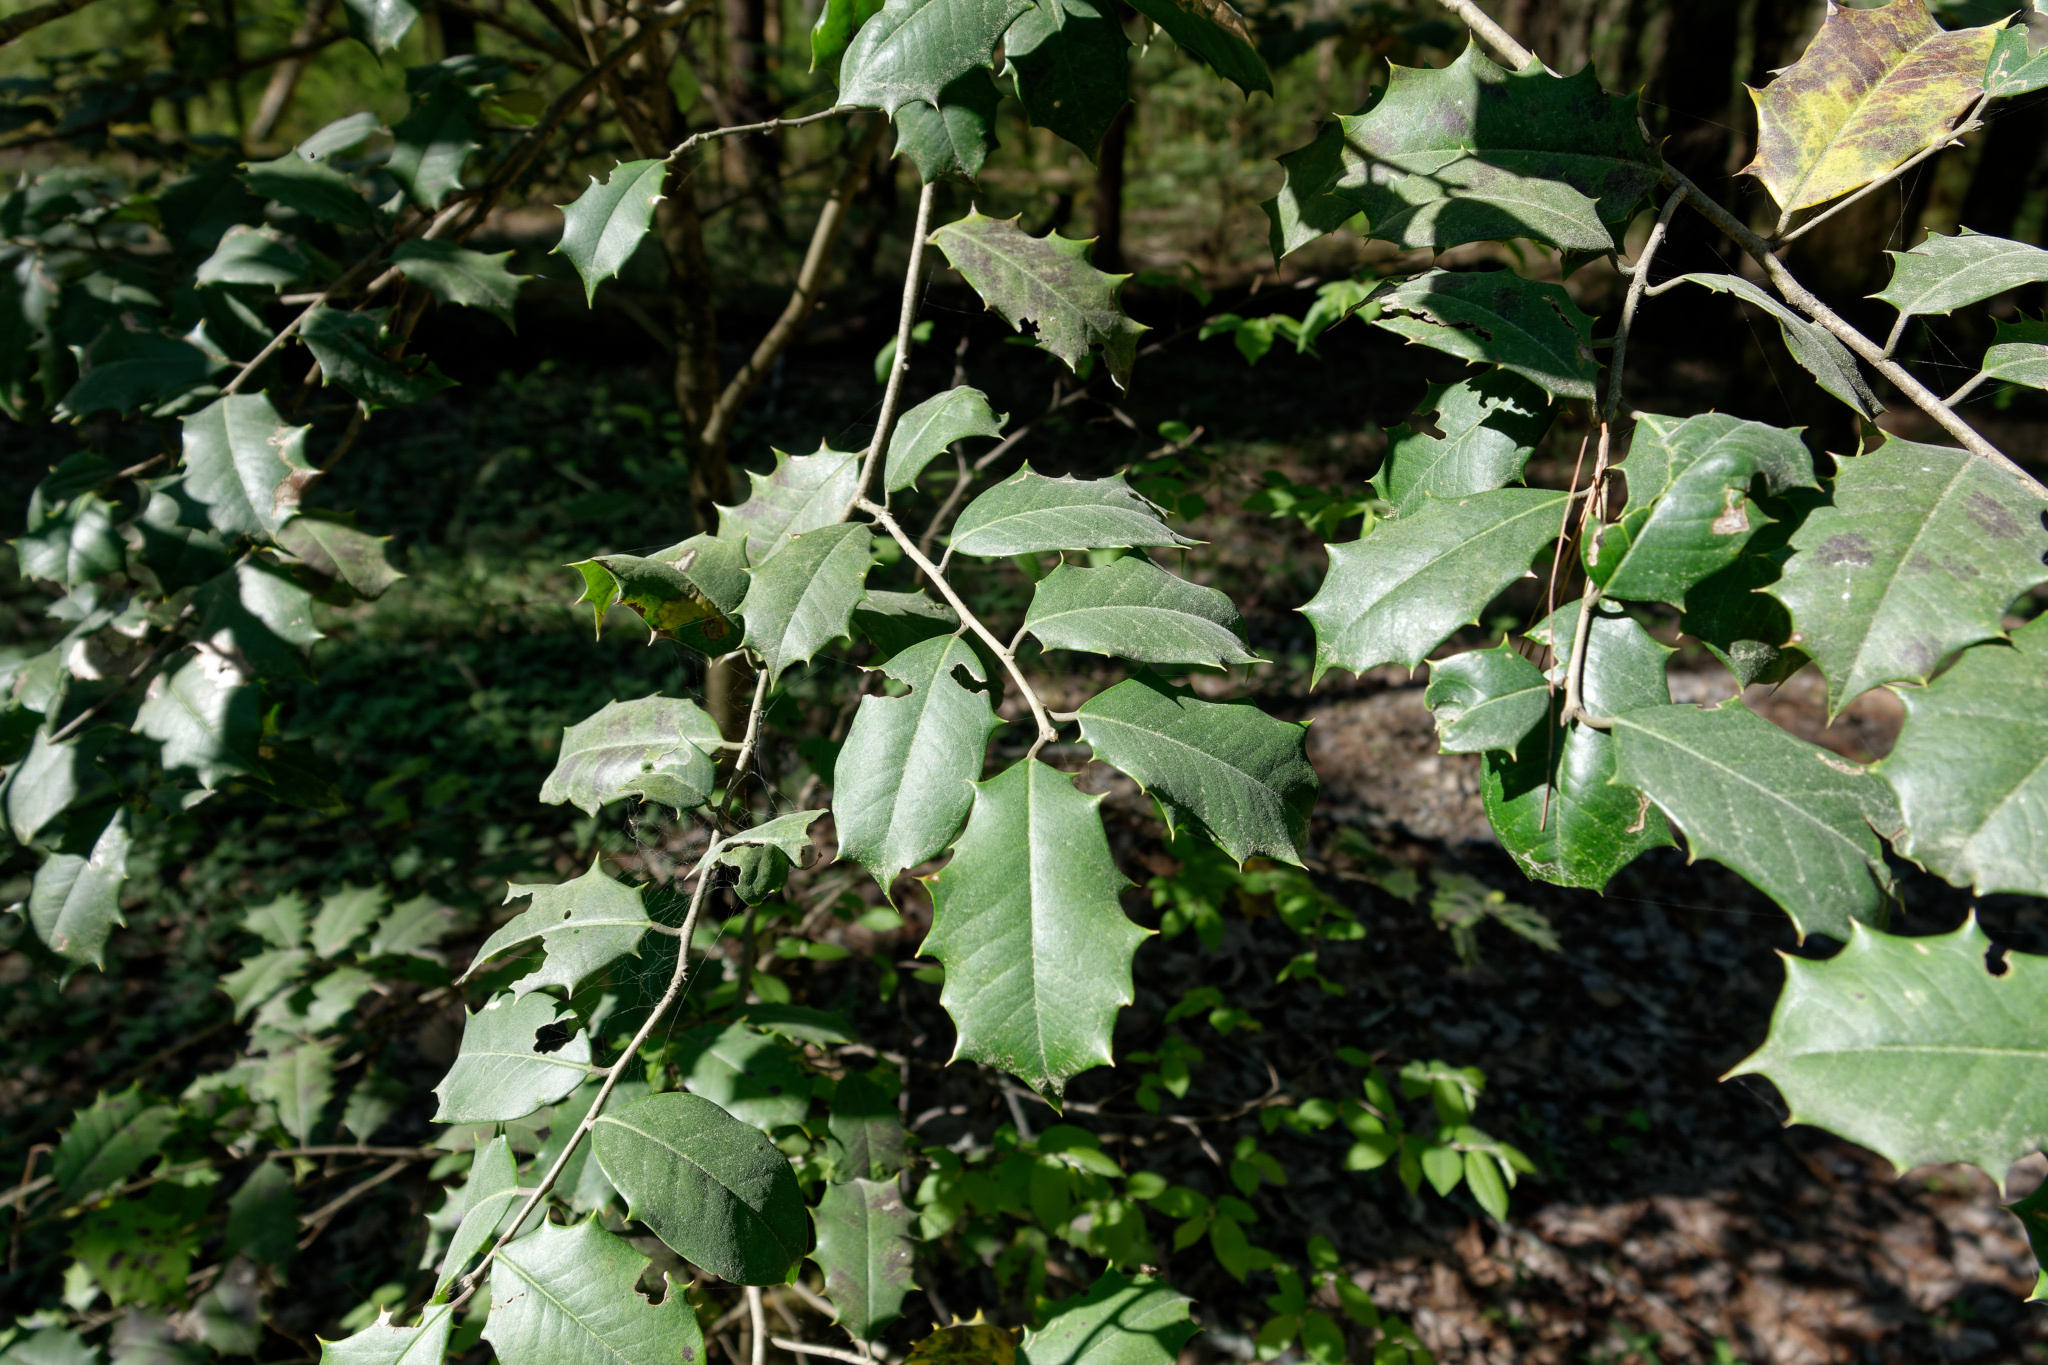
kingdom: Plantae
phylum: Tracheophyta
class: Magnoliopsida
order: Aquifoliales
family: Aquifoliaceae
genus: Ilex
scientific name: Ilex opaca
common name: American holly
